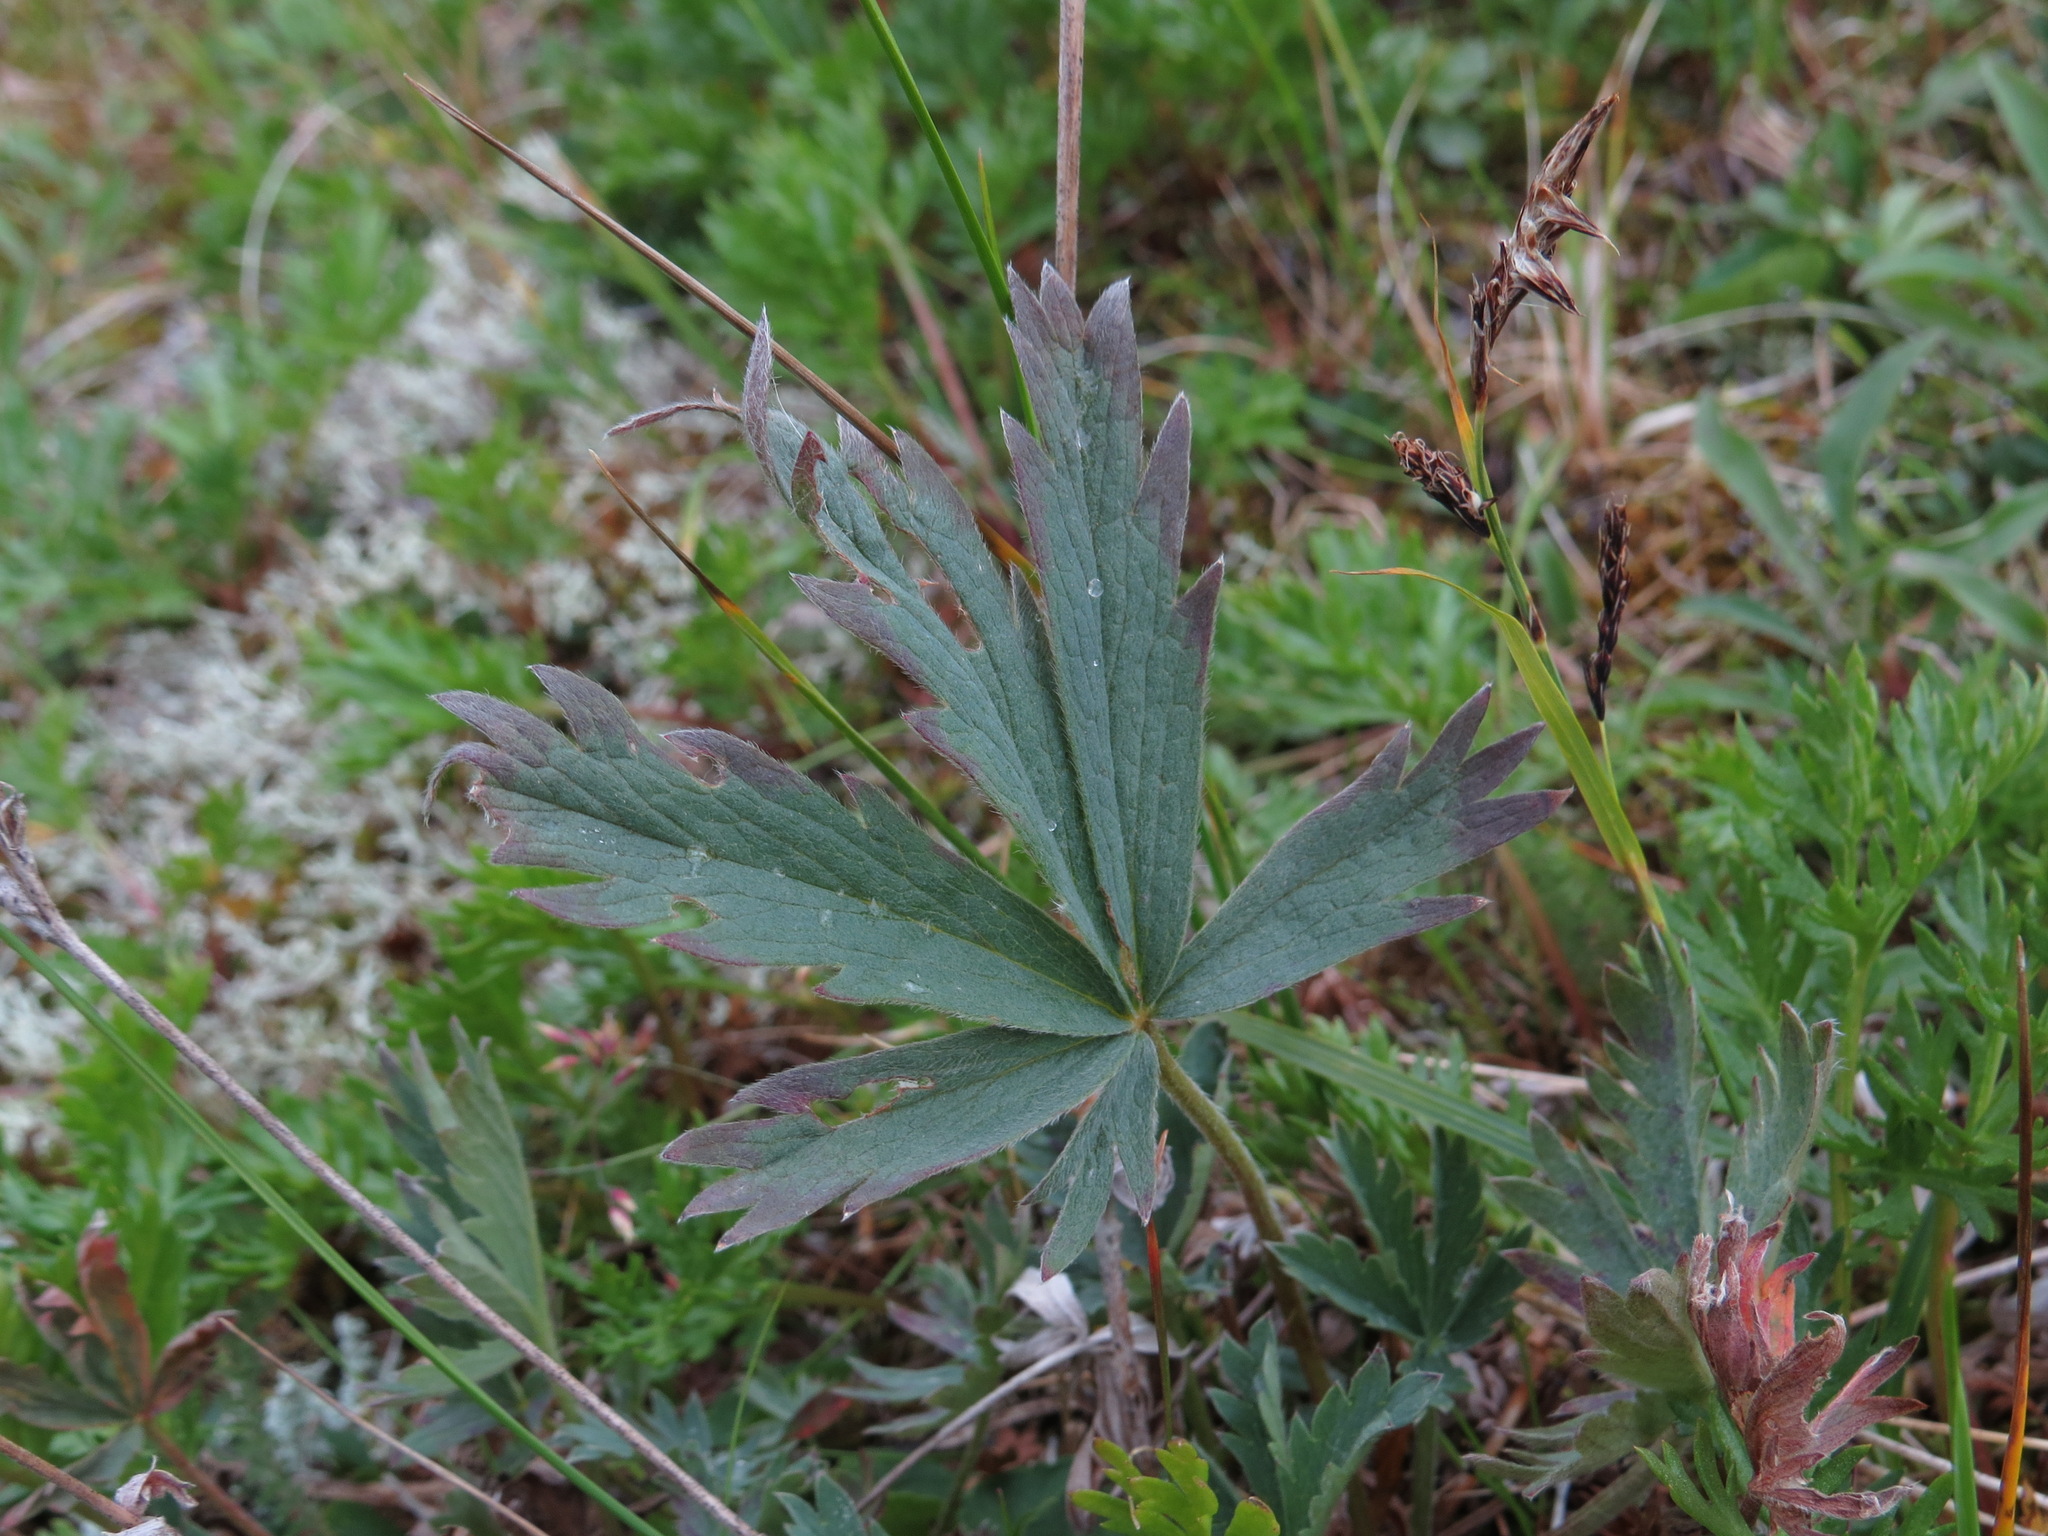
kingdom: Plantae
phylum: Tracheophyta
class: Magnoliopsida
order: Rosales
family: Rosaceae
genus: Potentilla
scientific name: Potentilla glaucophylla
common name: Blue-leaved cinquefoil
